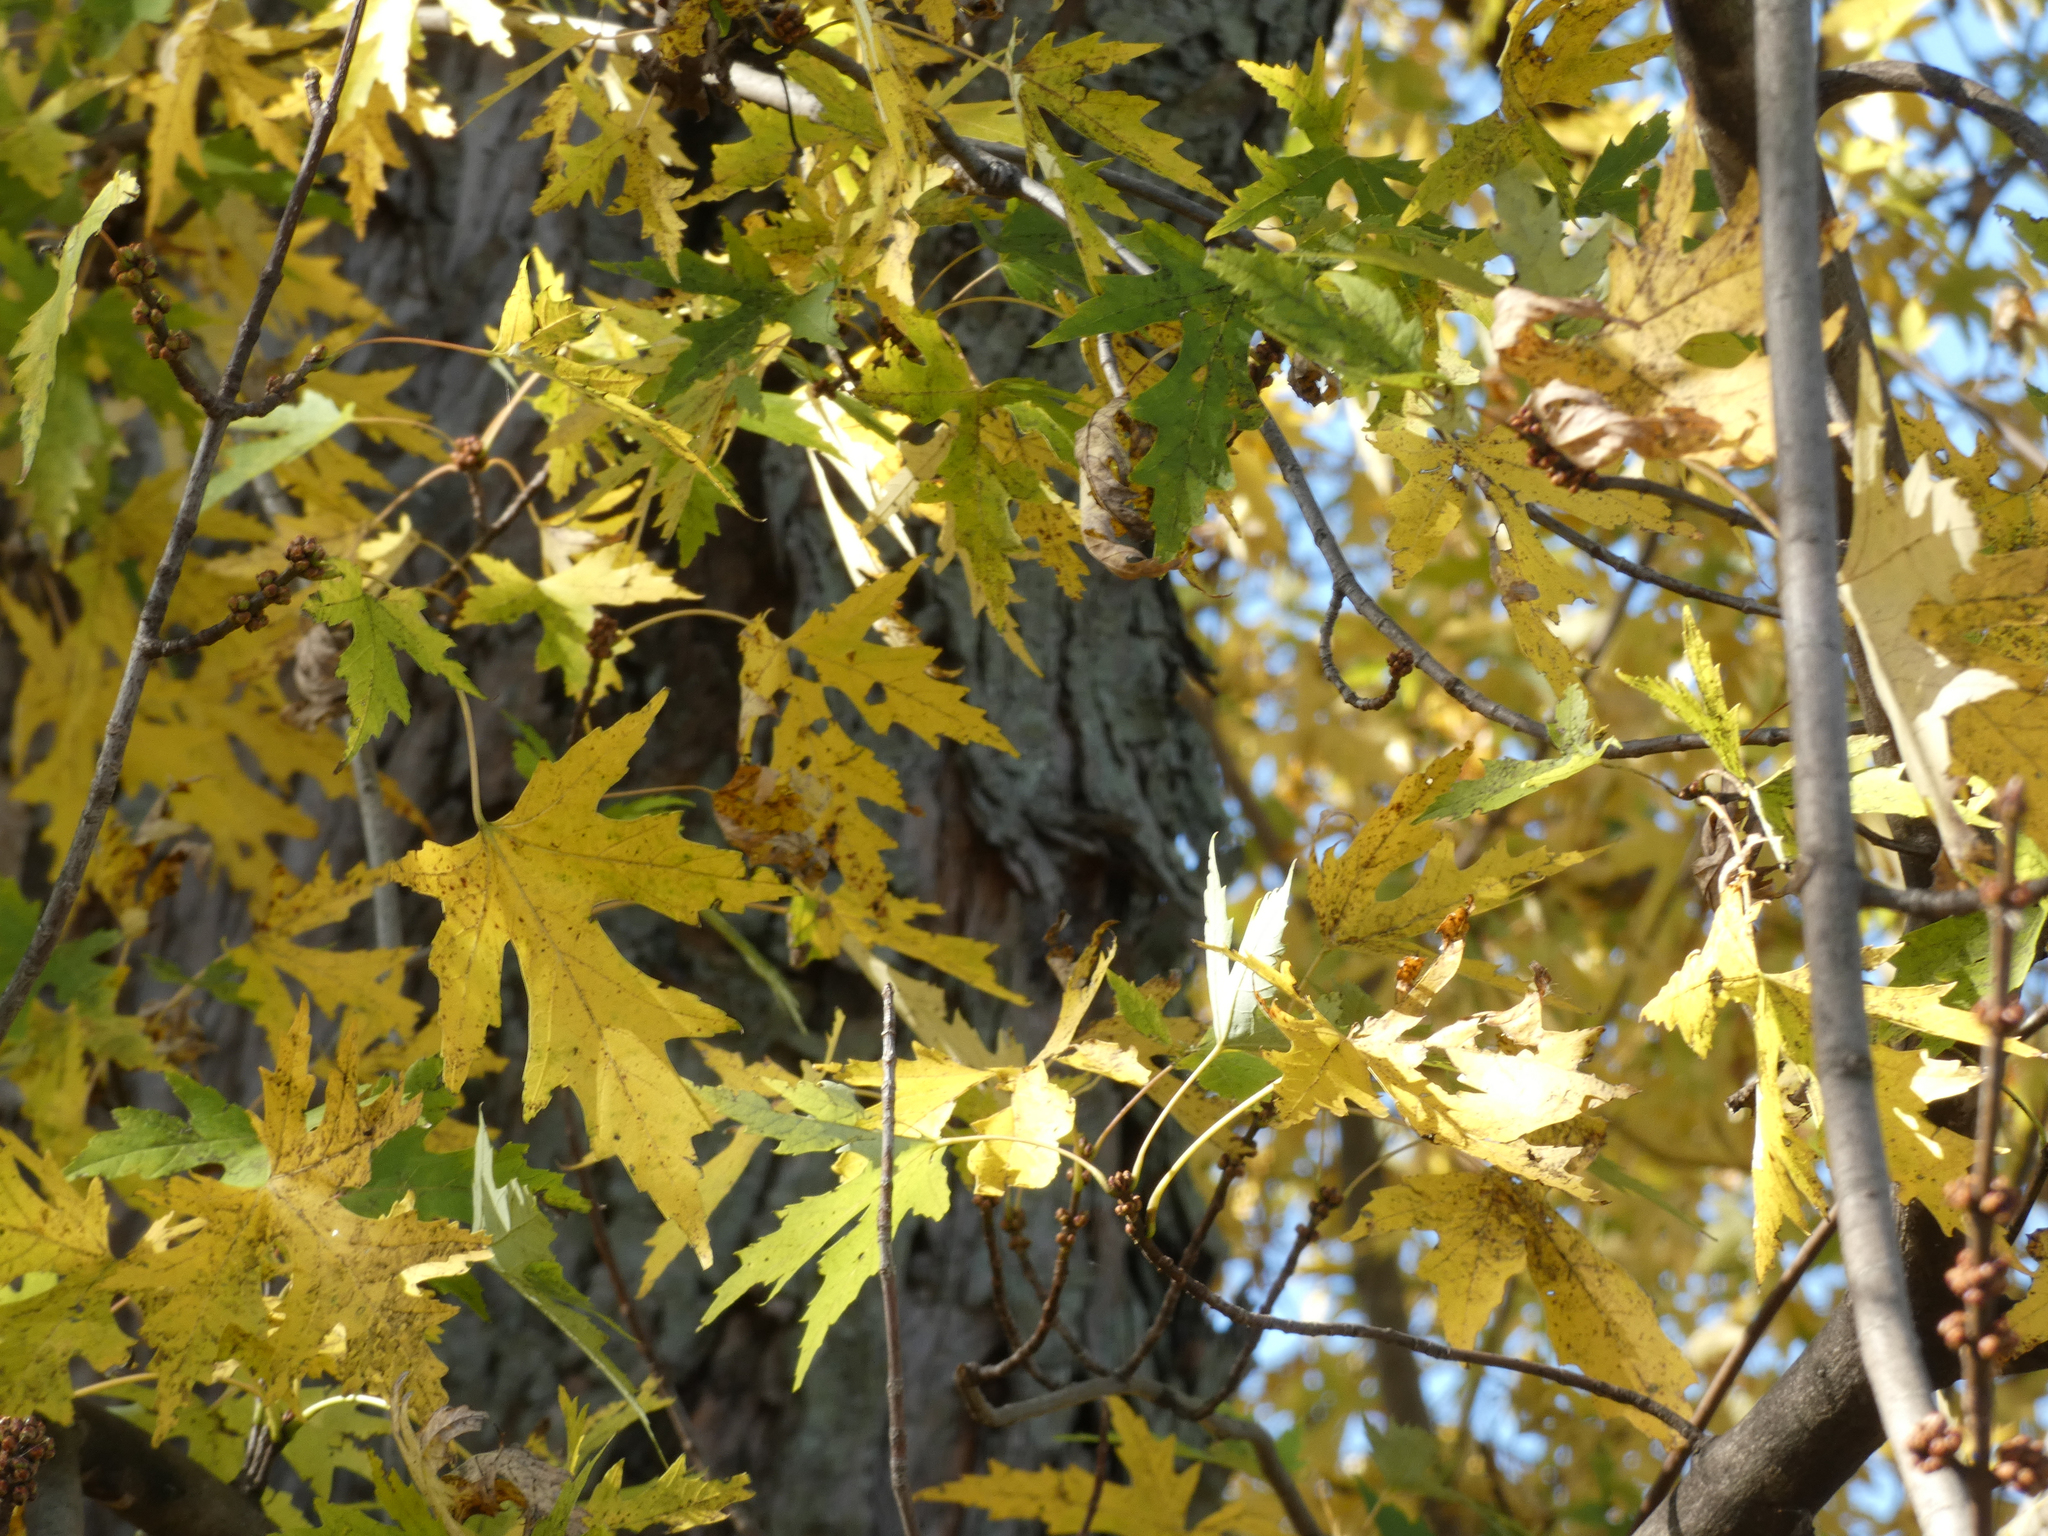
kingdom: Plantae
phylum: Tracheophyta
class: Magnoliopsida
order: Sapindales
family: Sapindaceae
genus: Acer
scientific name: Acer saccharinum
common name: Silver maple
